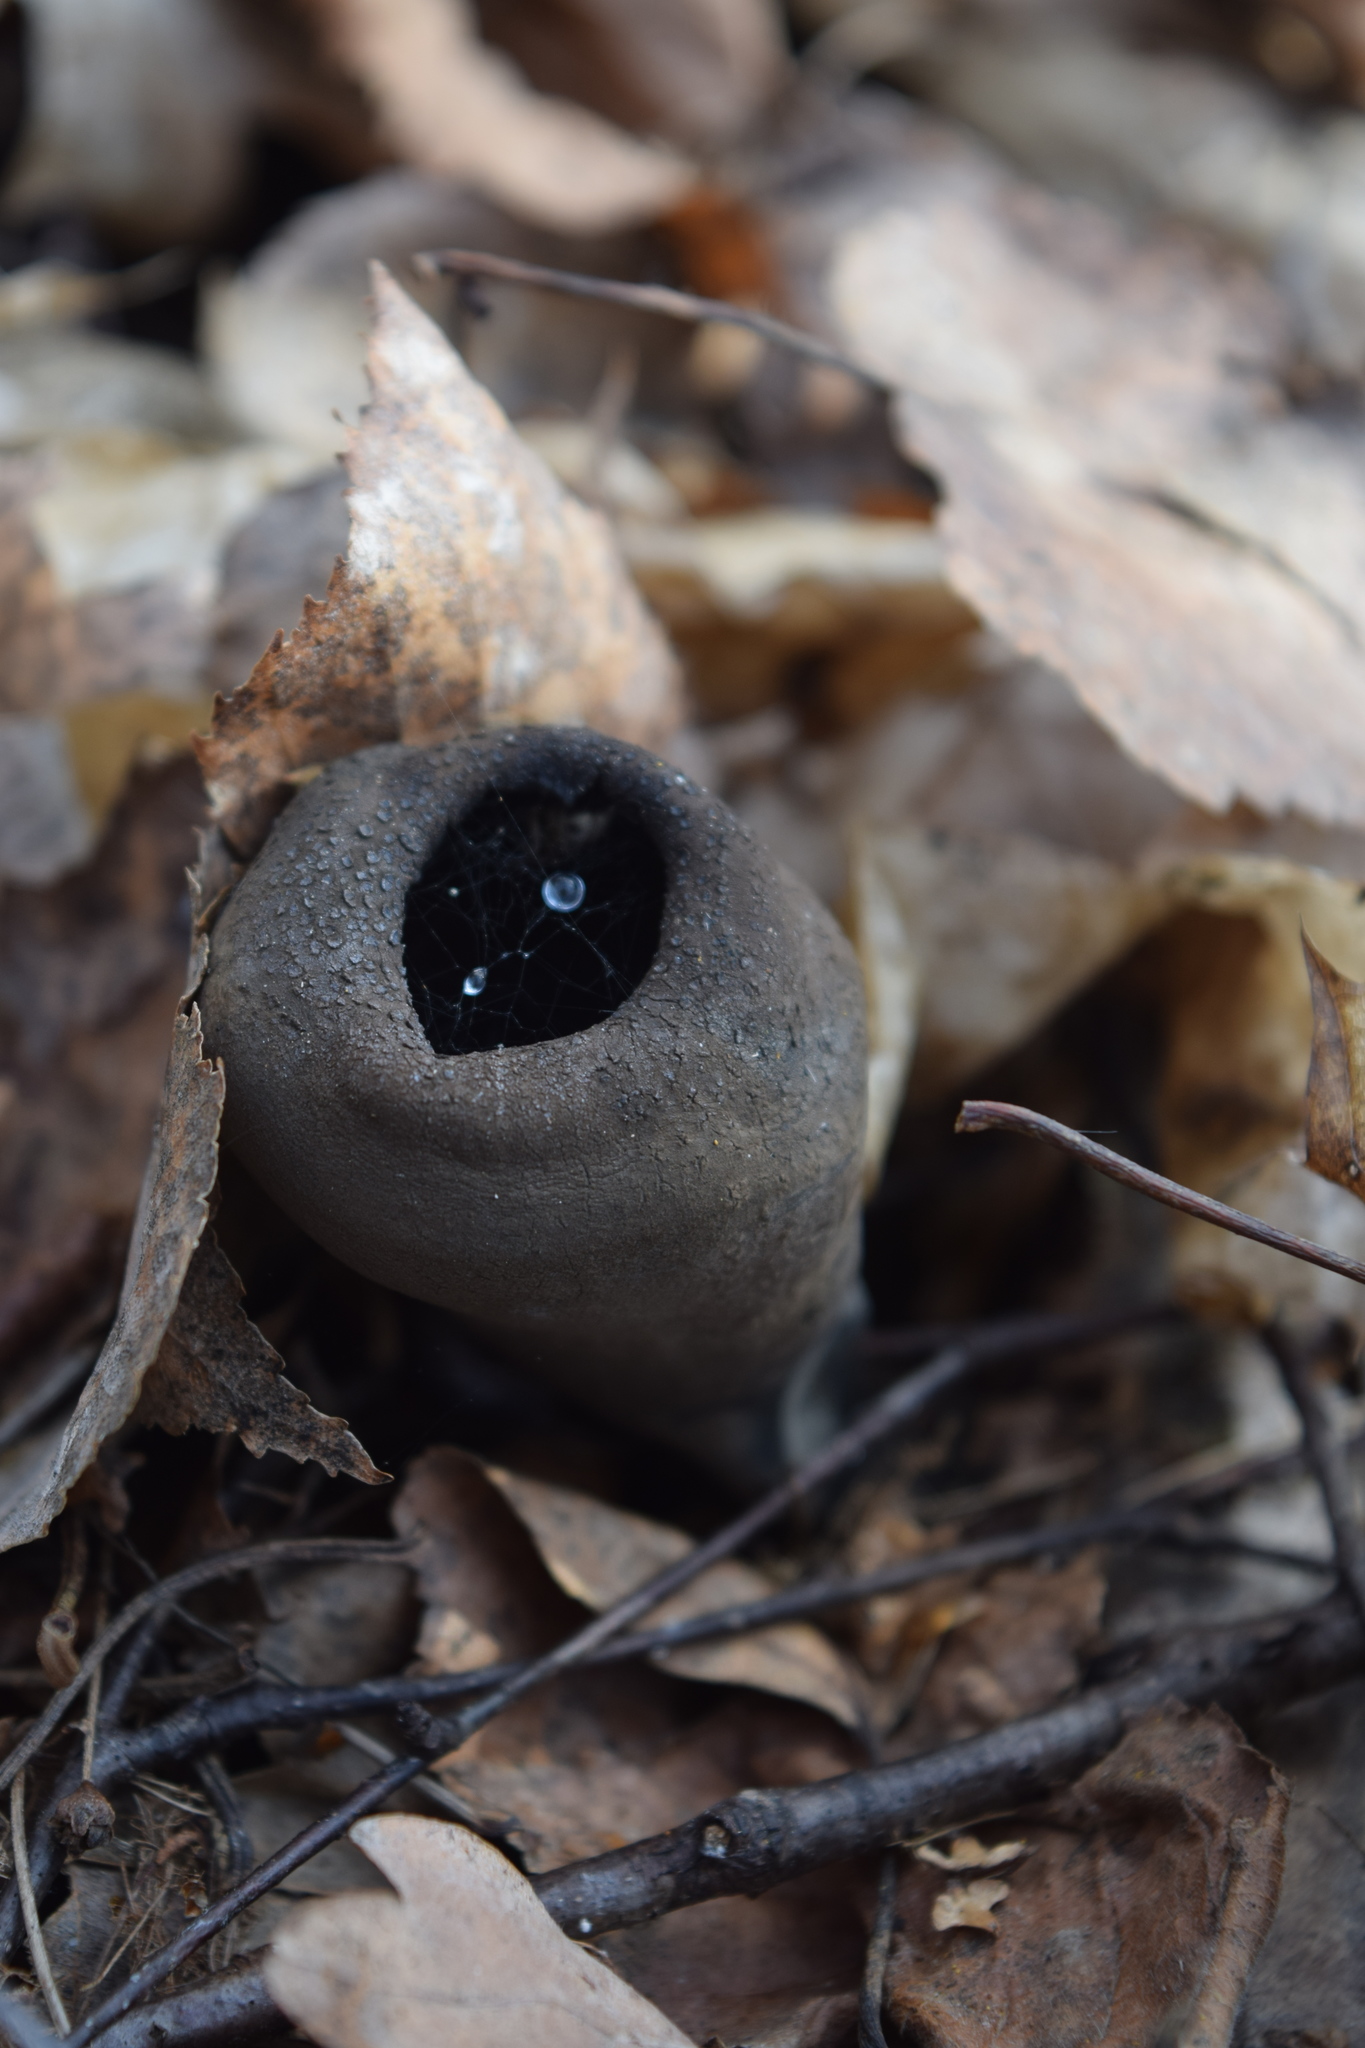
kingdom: Fungi
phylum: Ascomycota
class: Pezizomycetes
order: Pezizales
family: Sarcosomataceae
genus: Urnula
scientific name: Urnula craterium
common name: Devil's urn
